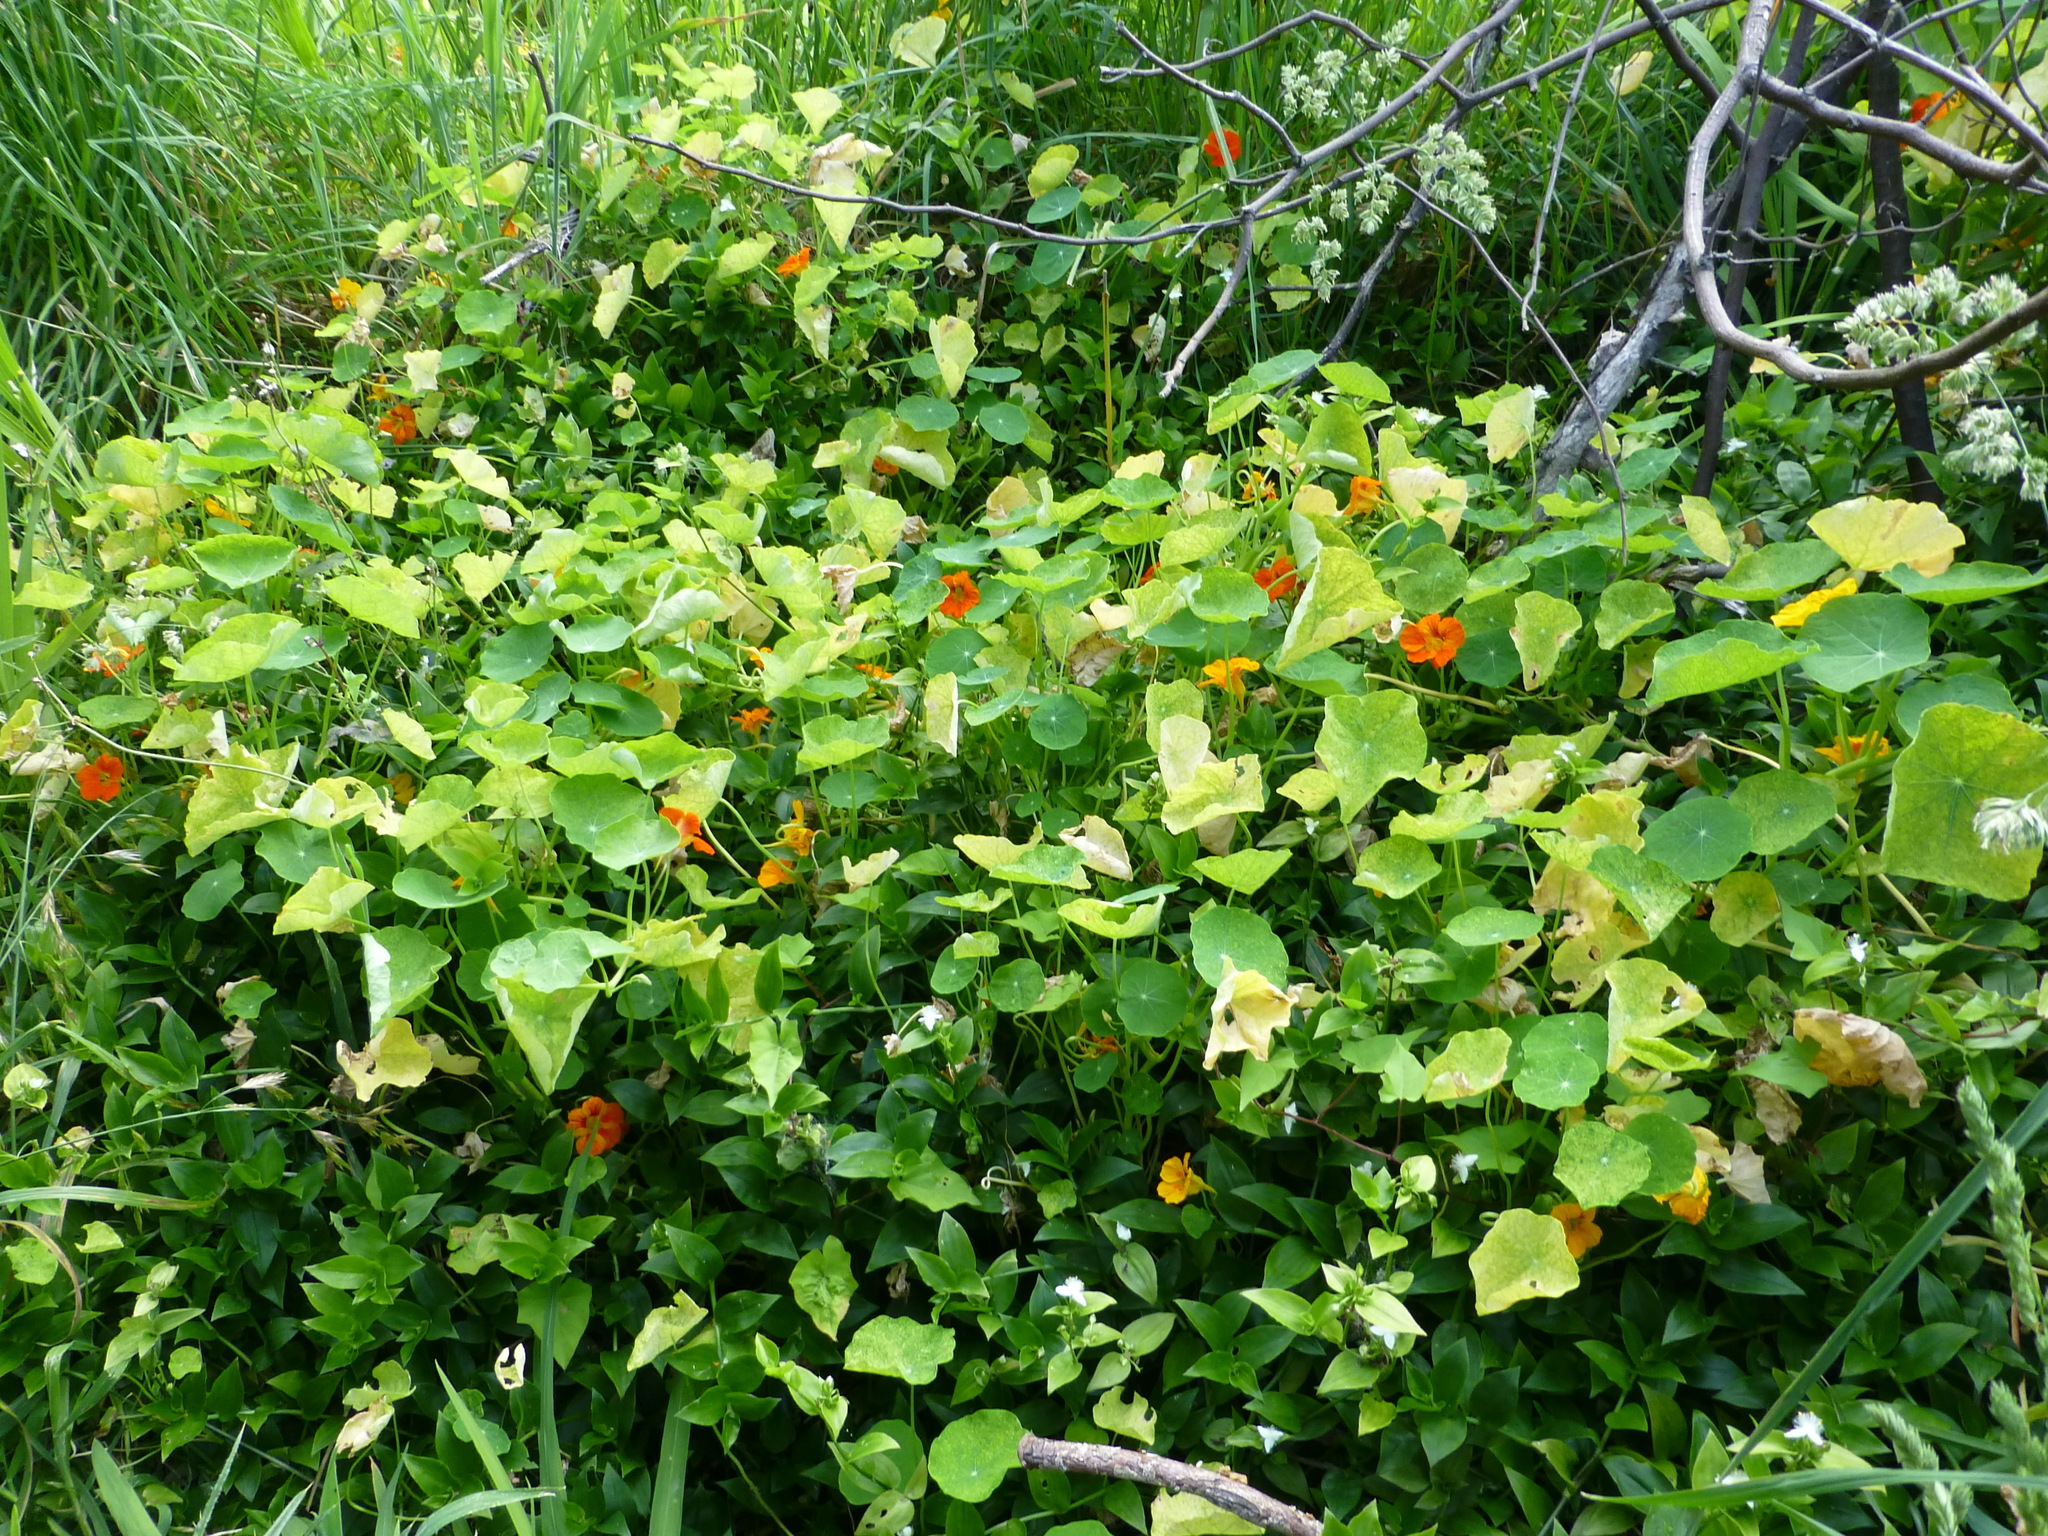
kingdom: Plantae
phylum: Tracheophyta
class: Magnoliopsida
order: Brassicales
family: Tropaeolaceae
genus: Tropaeolum
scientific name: Tropaeolum majus
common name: Nasturtium
